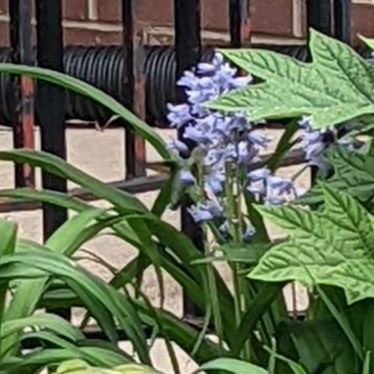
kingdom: Animalia
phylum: Chordata
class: Aves
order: Apodiformes
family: Trochilidae
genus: Archilochus
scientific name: Archilochus colubris
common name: Ruby-throated hummingbird
